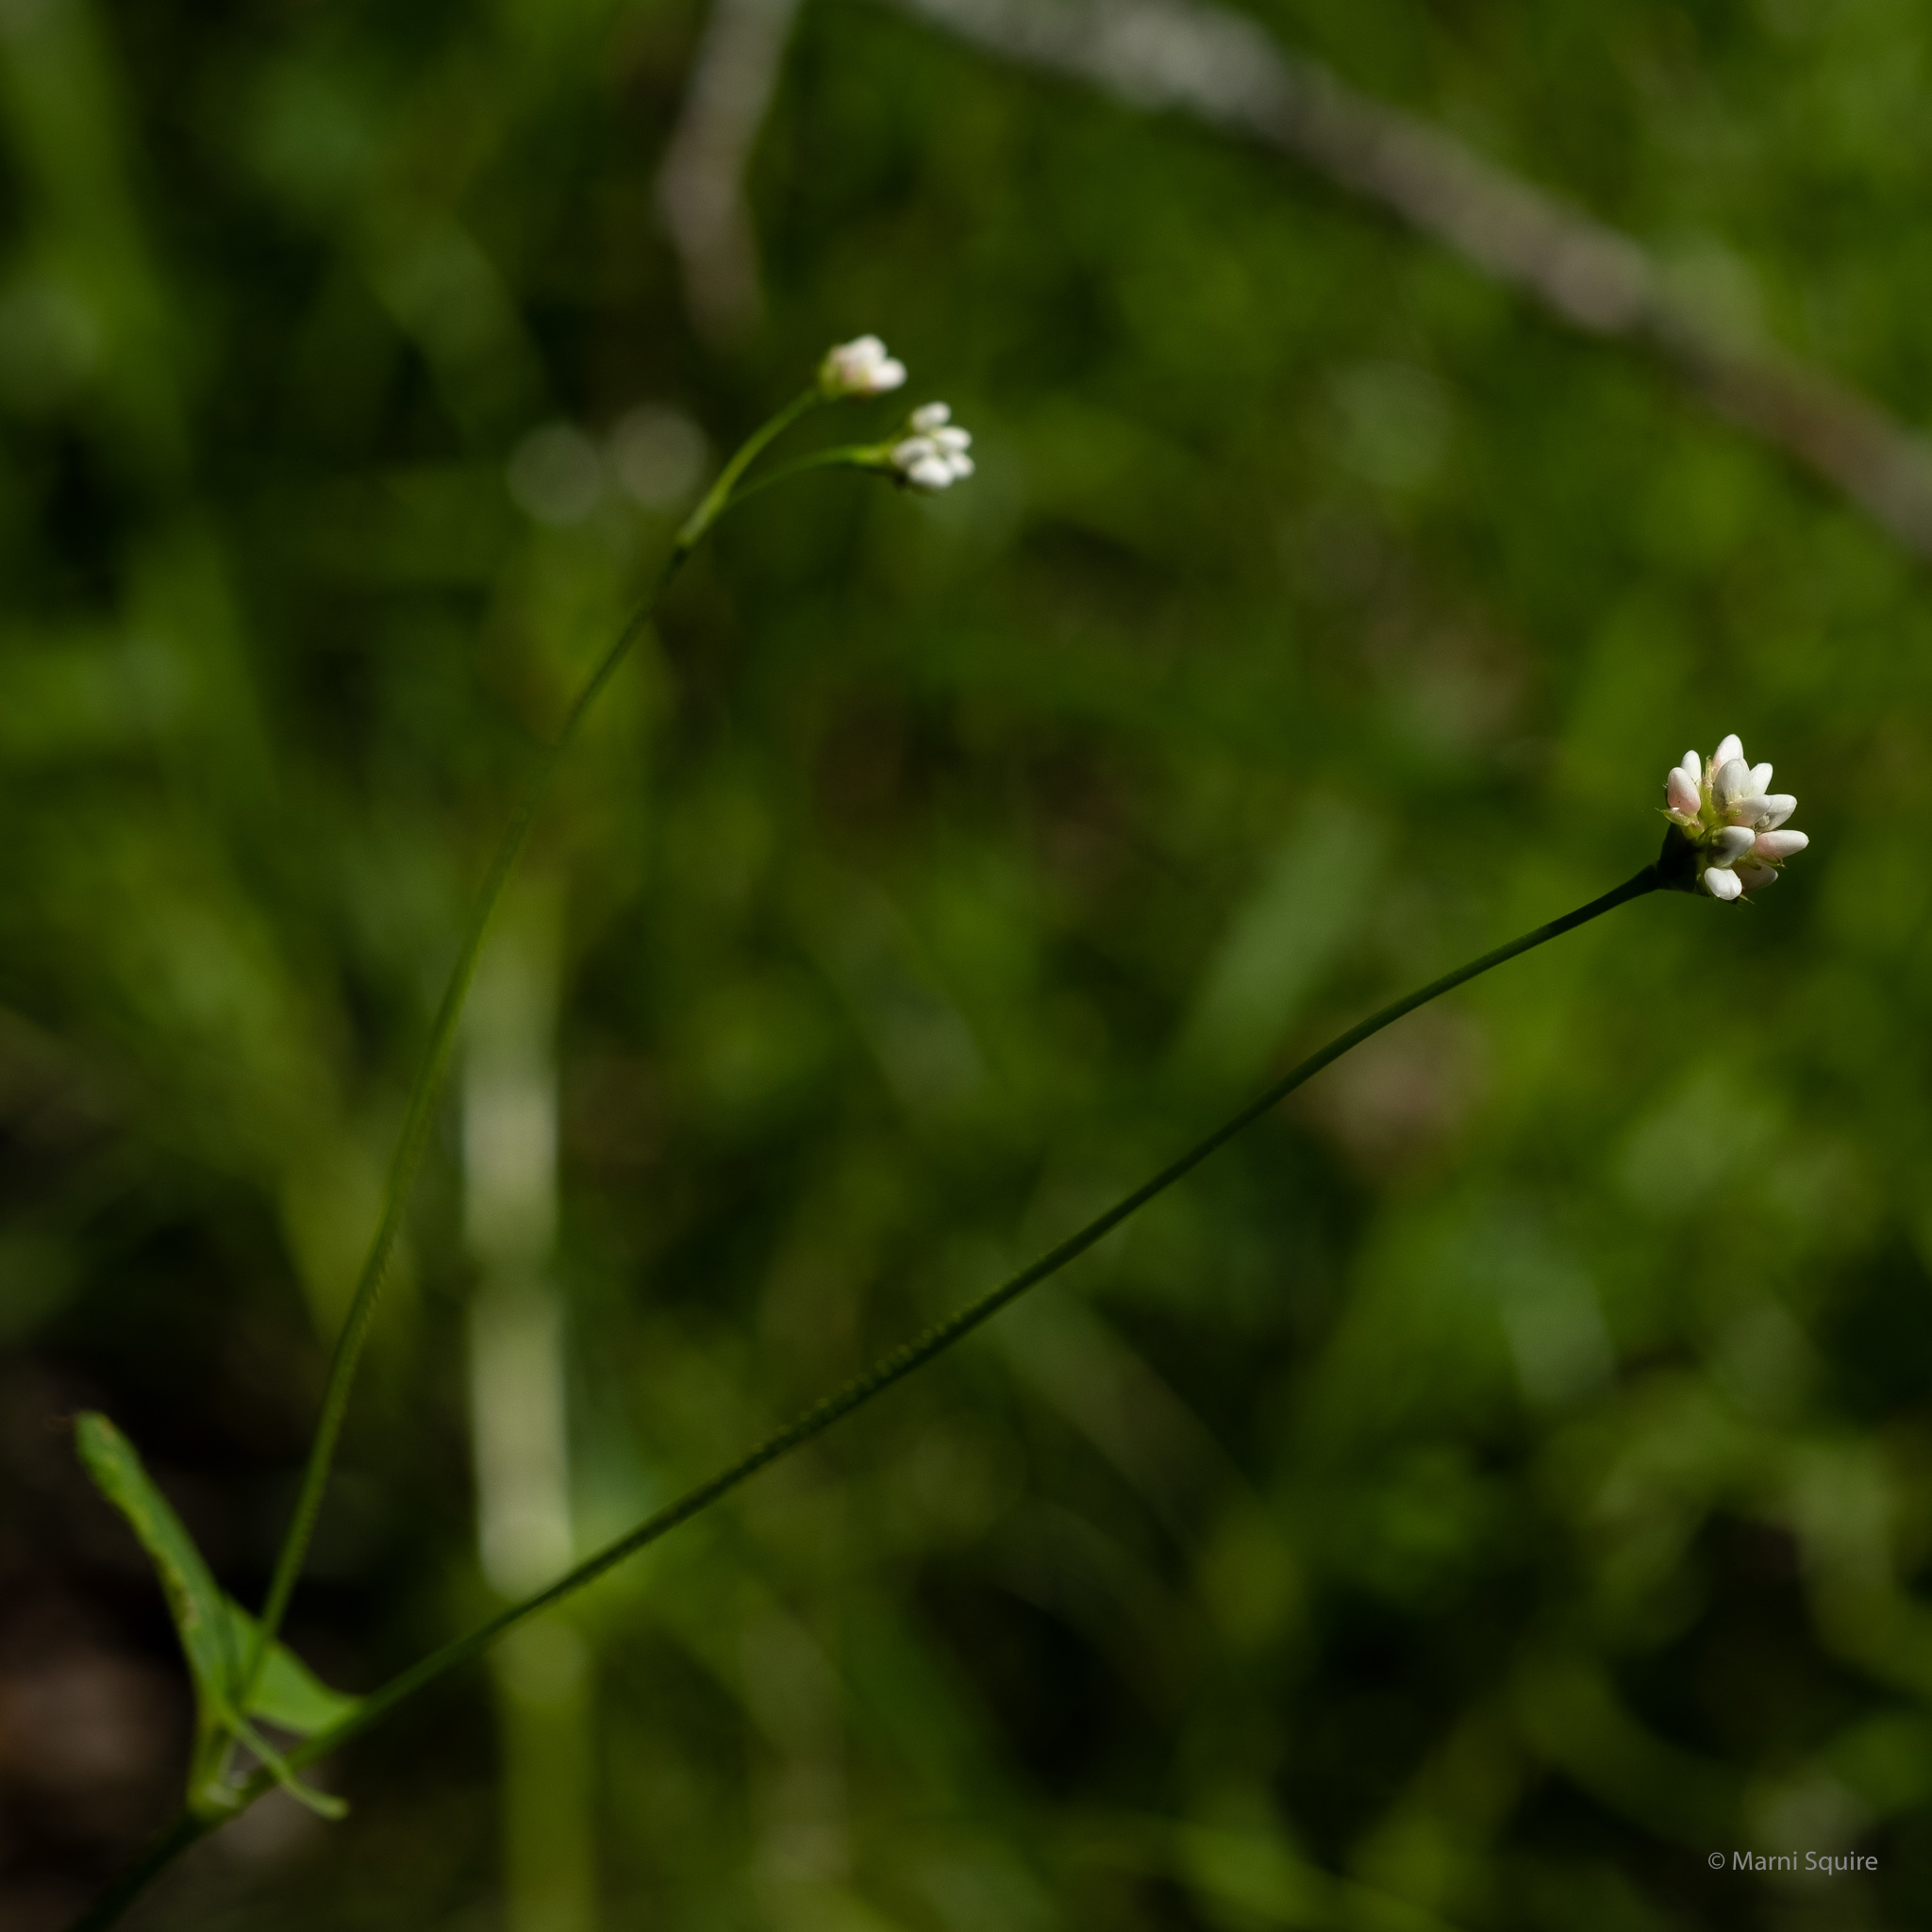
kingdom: Plantae
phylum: Tracheophyta
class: Magnoliopsida
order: Caryophyllales
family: Polygonaceae
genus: Persicaria
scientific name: Persicaria sagittata
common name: American tearthumb
